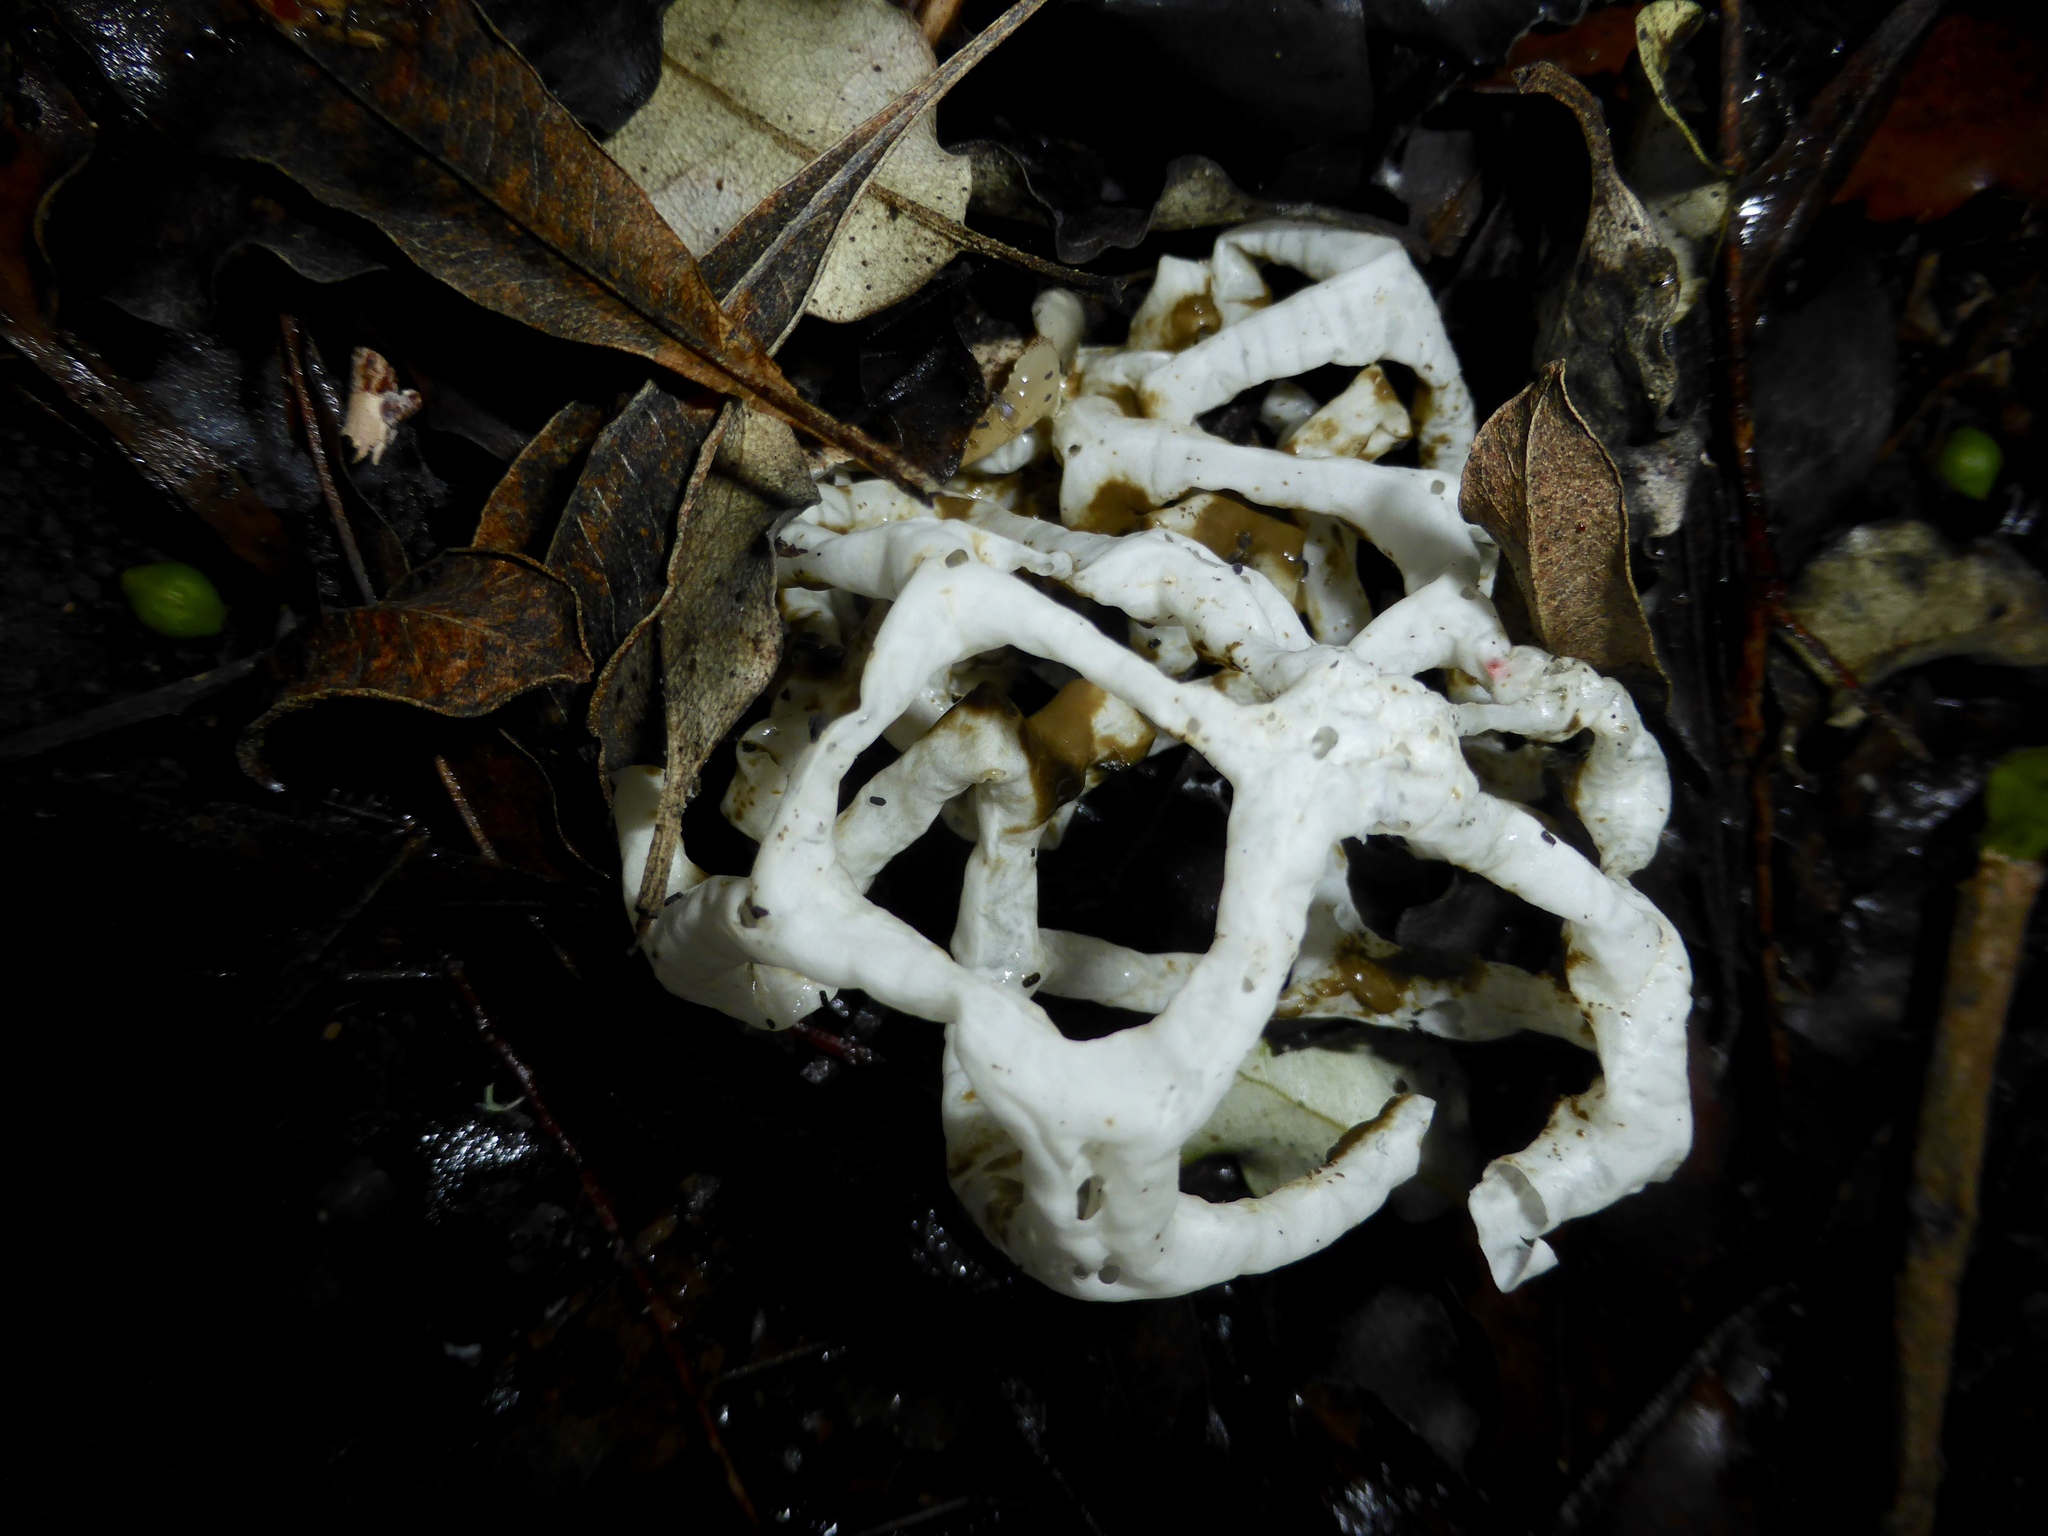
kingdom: Fungi
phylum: Basidiomycota
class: Agaricomycetes
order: Phallales
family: Phallaceae
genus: Ileodictyon
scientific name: Ileodictyon cibarium
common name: Basket fungus
